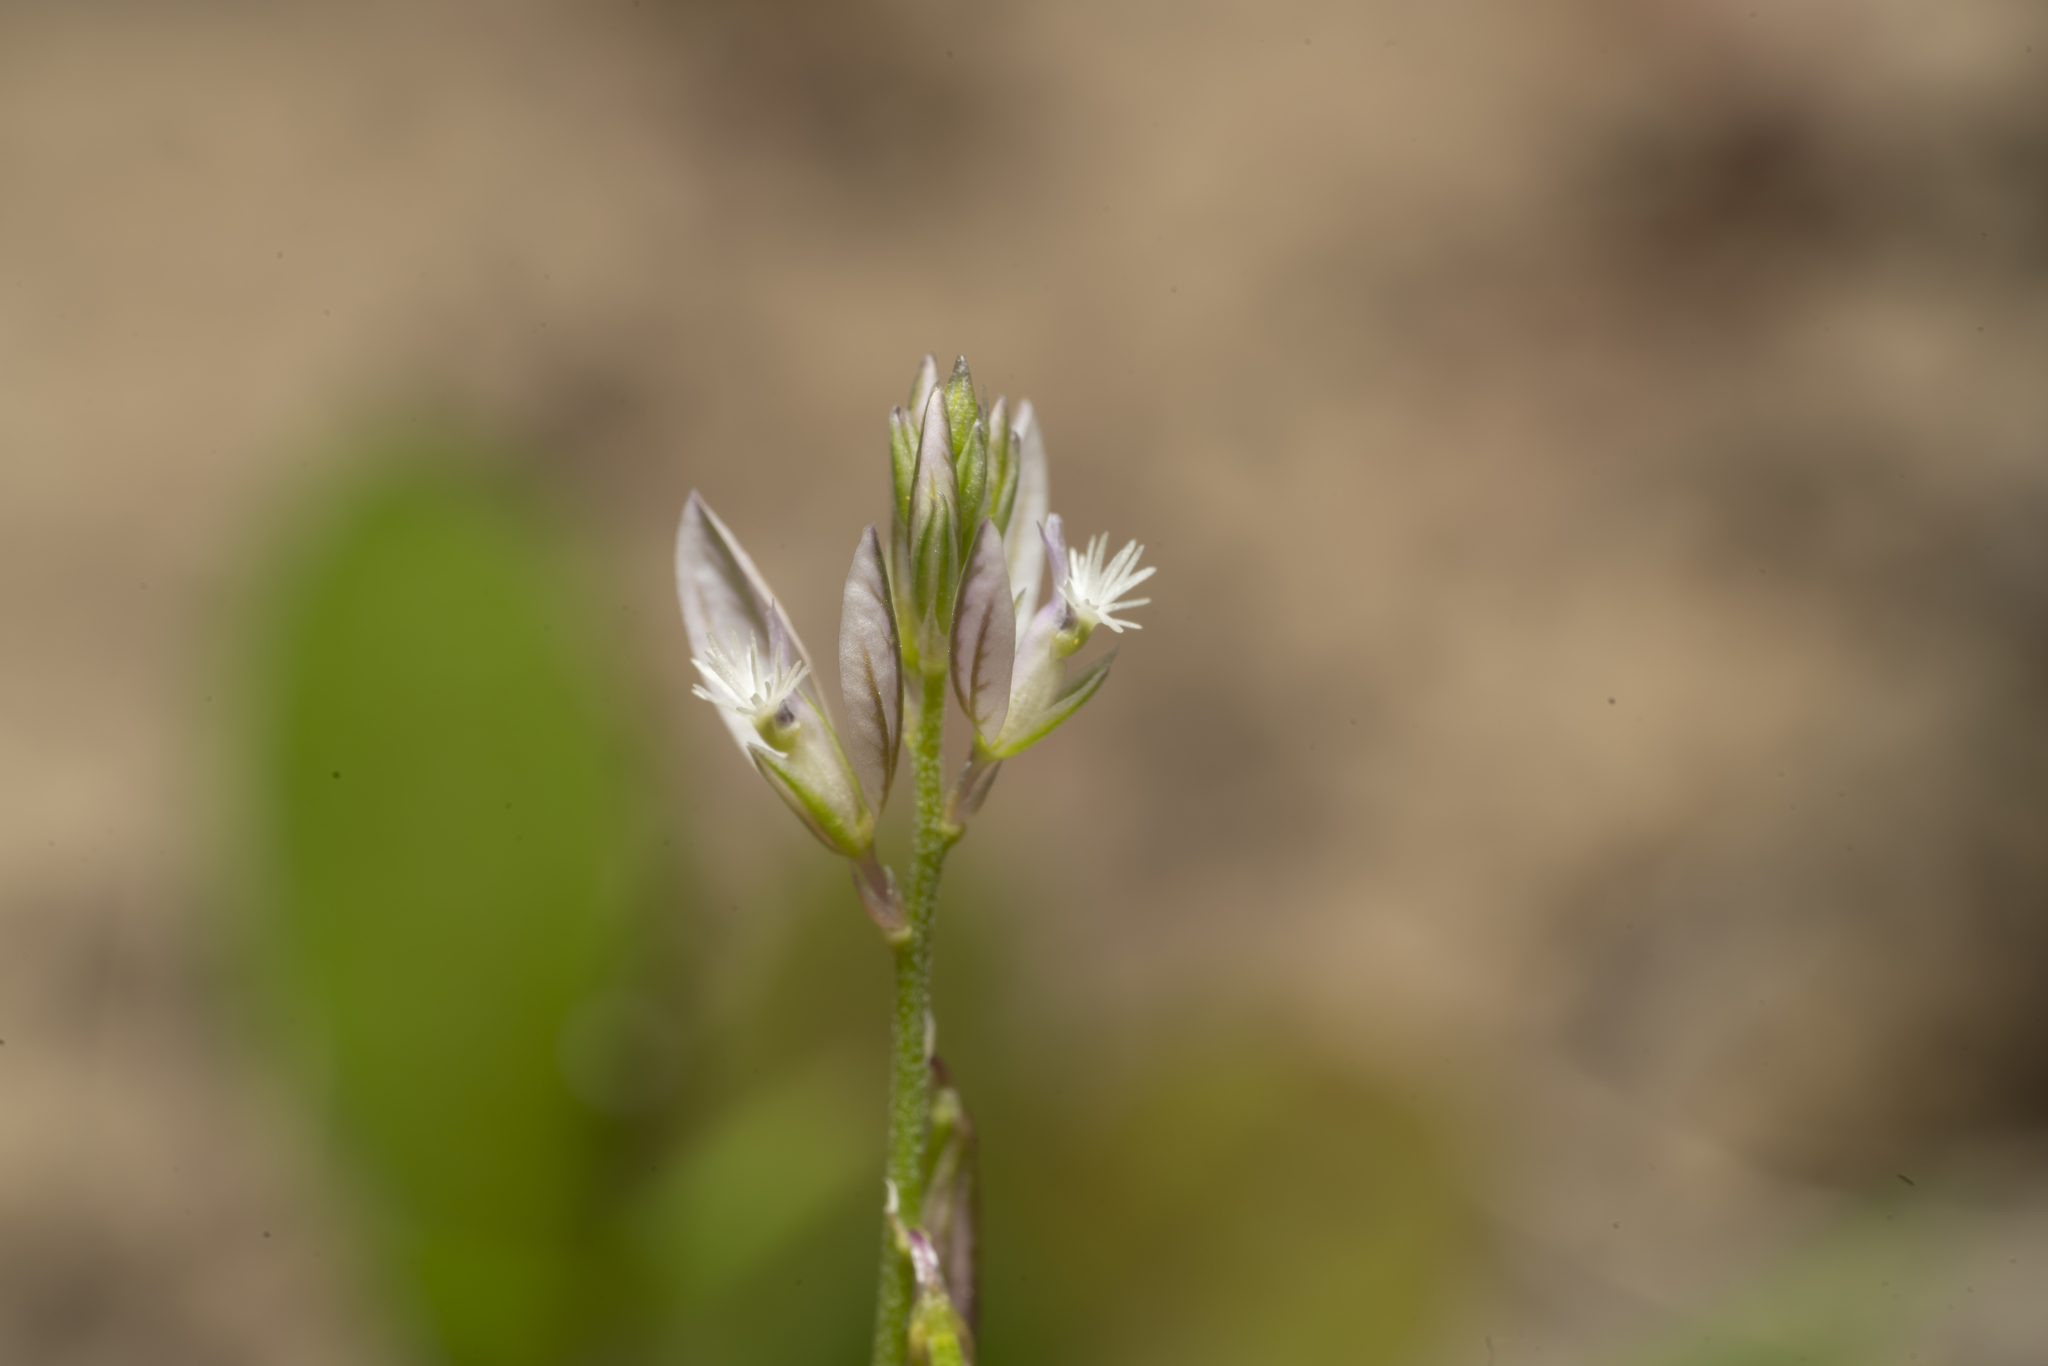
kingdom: Plantae
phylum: Tracheophyta
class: Magnoliopsida
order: Fabales
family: Polygalaceae
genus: Polygala
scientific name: Polygala monspeliaca
